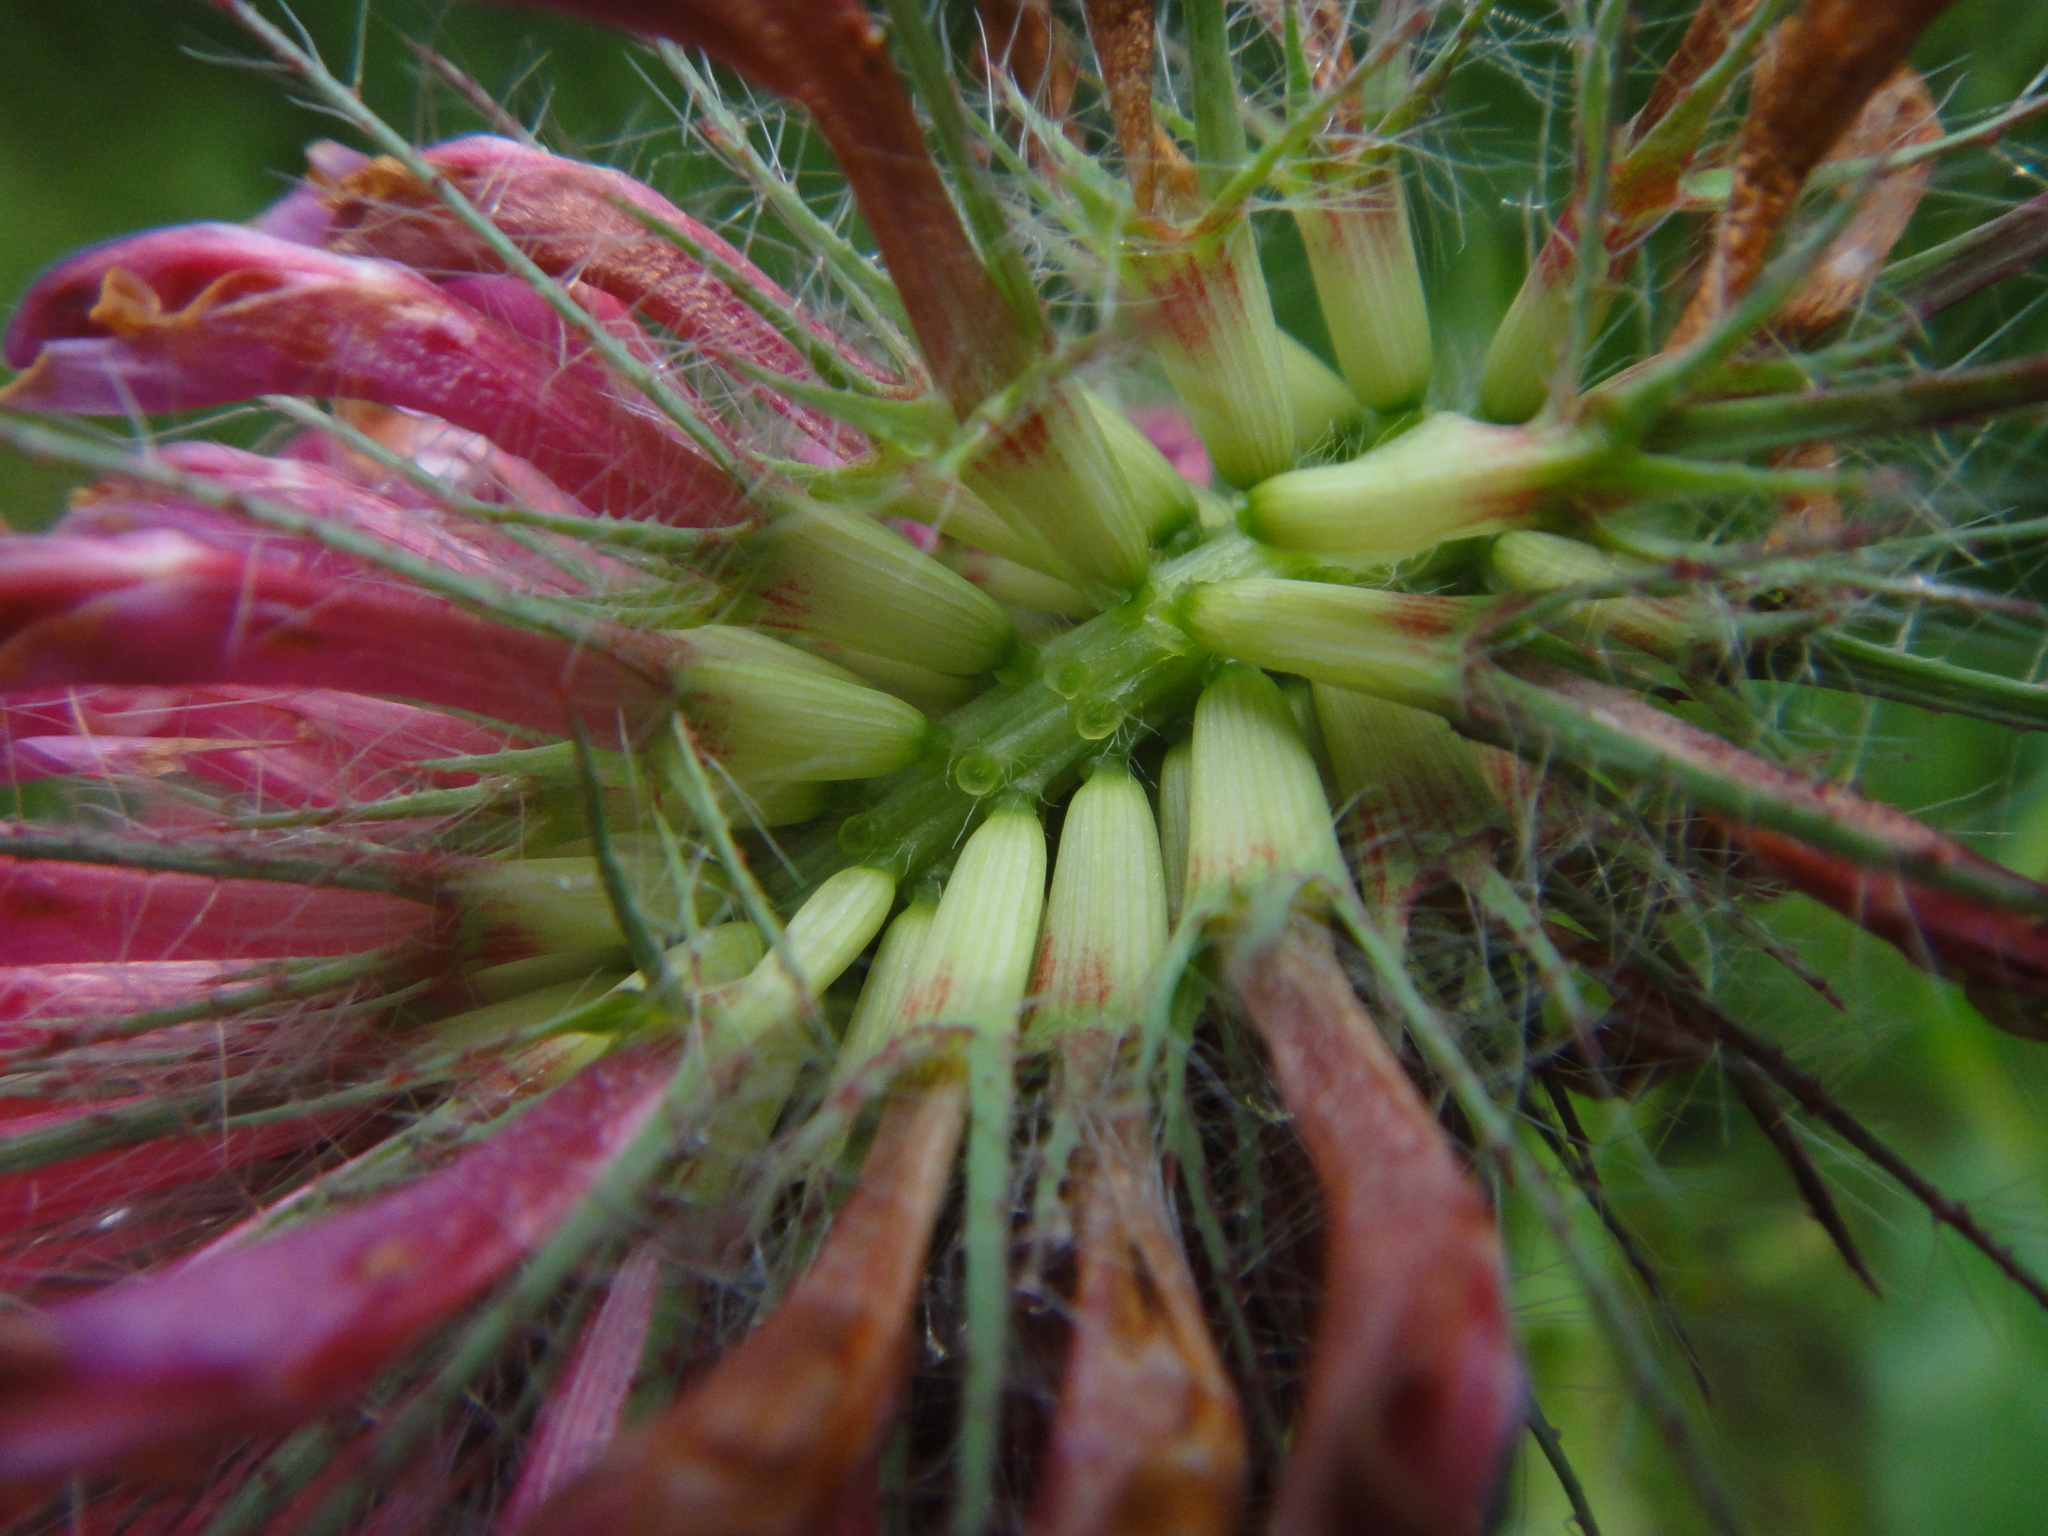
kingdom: Plantae
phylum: Tracheophyta
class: Magnoliopsida
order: Fabales
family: Fabaceae
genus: Trifolium
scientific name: Trifolium rubens
